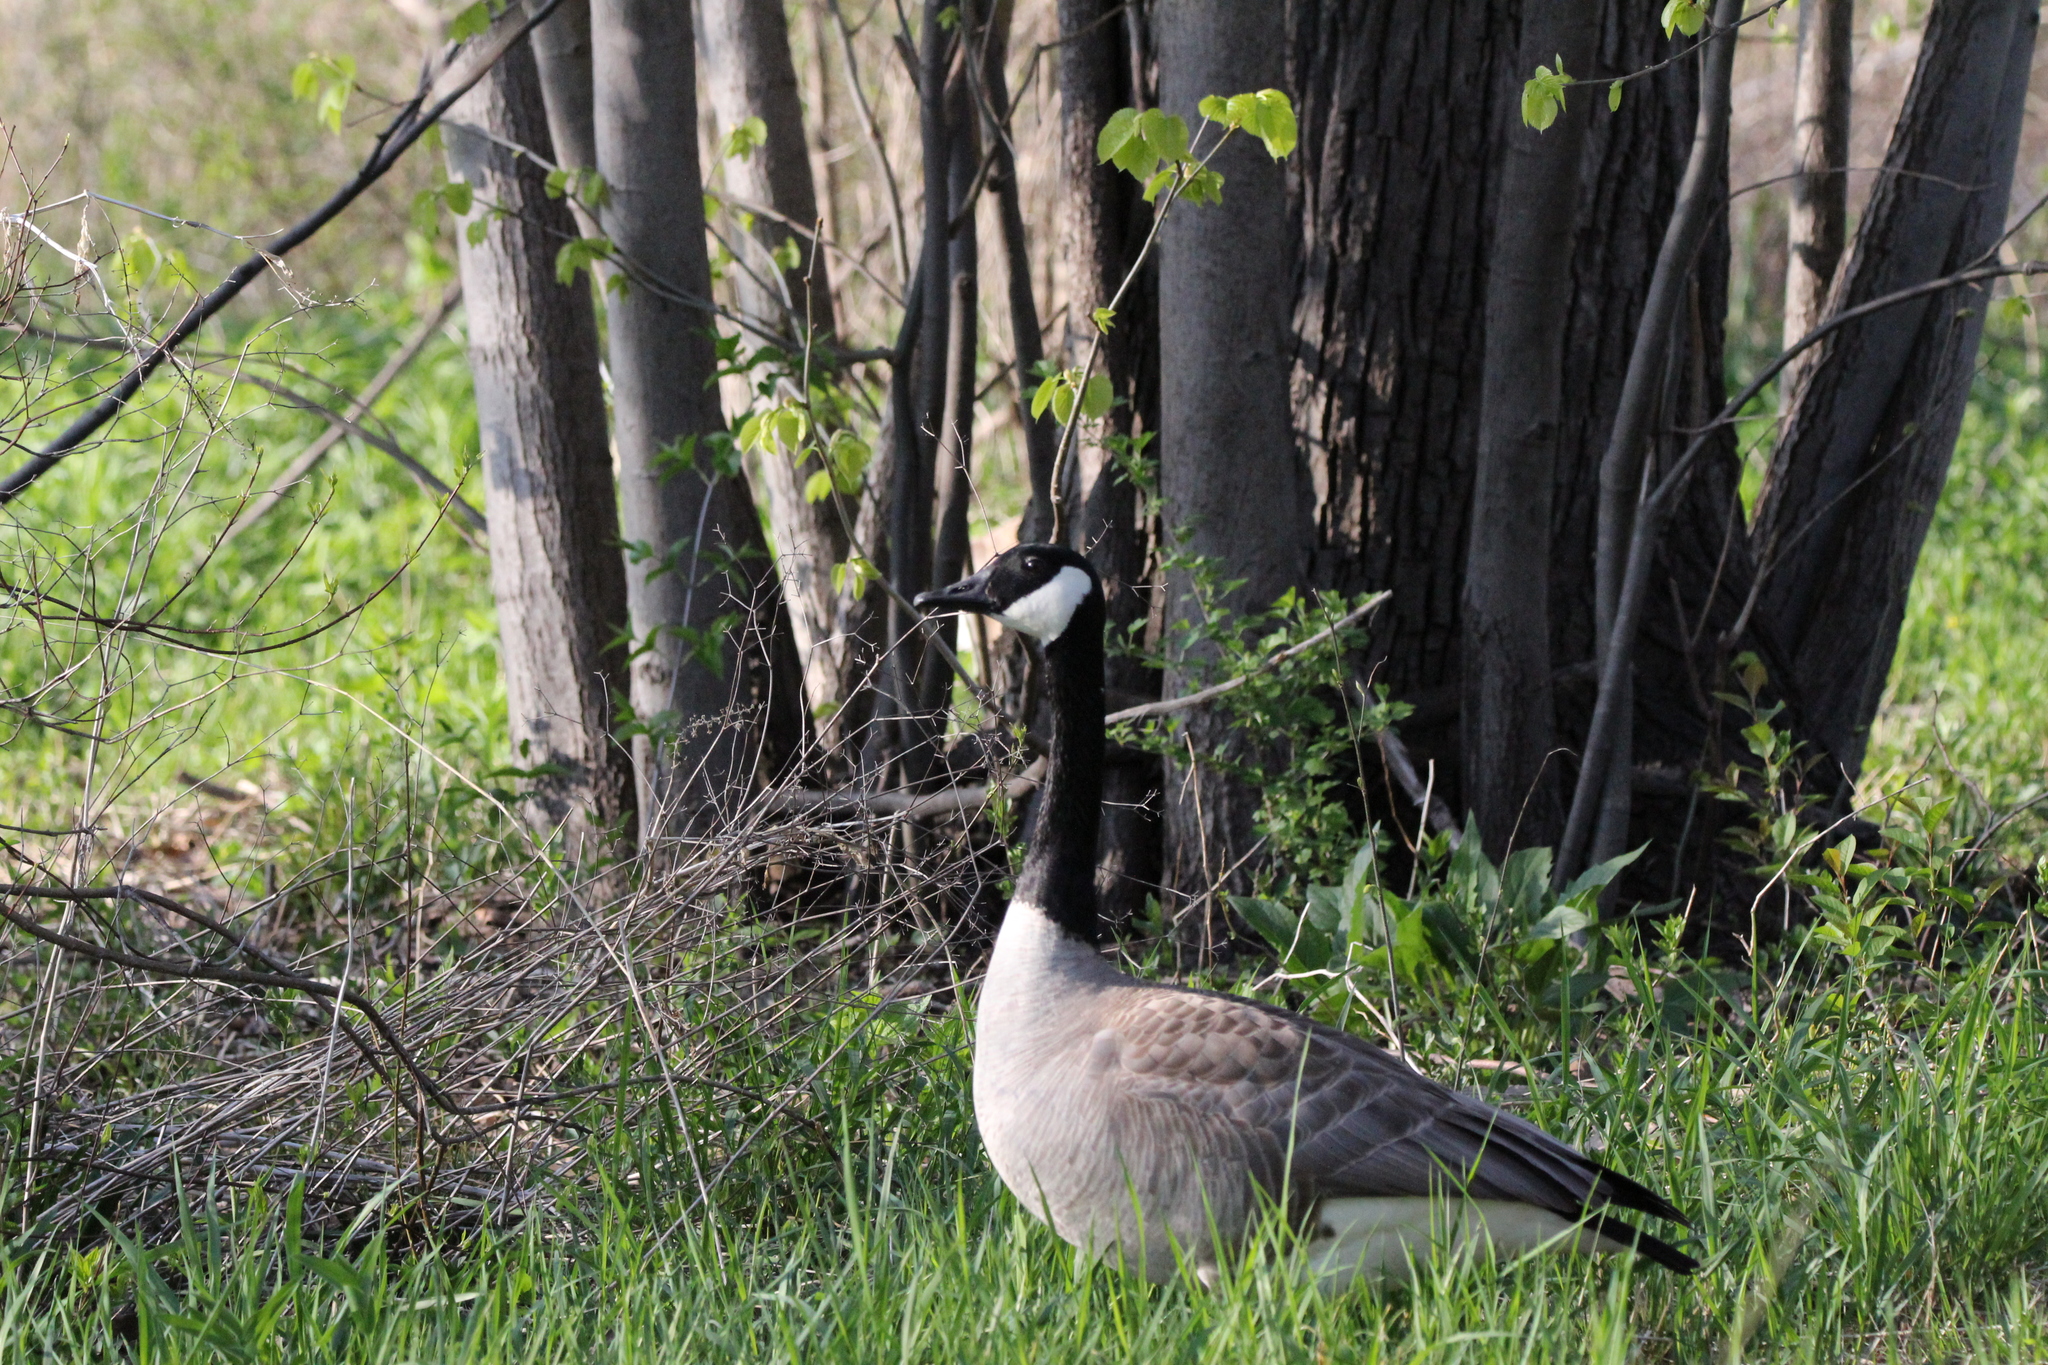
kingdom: Animalia
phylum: Chordata
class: Aves
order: Anseriformes
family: Anatidae
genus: Branta
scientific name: Branta canadensis
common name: Canada goose
